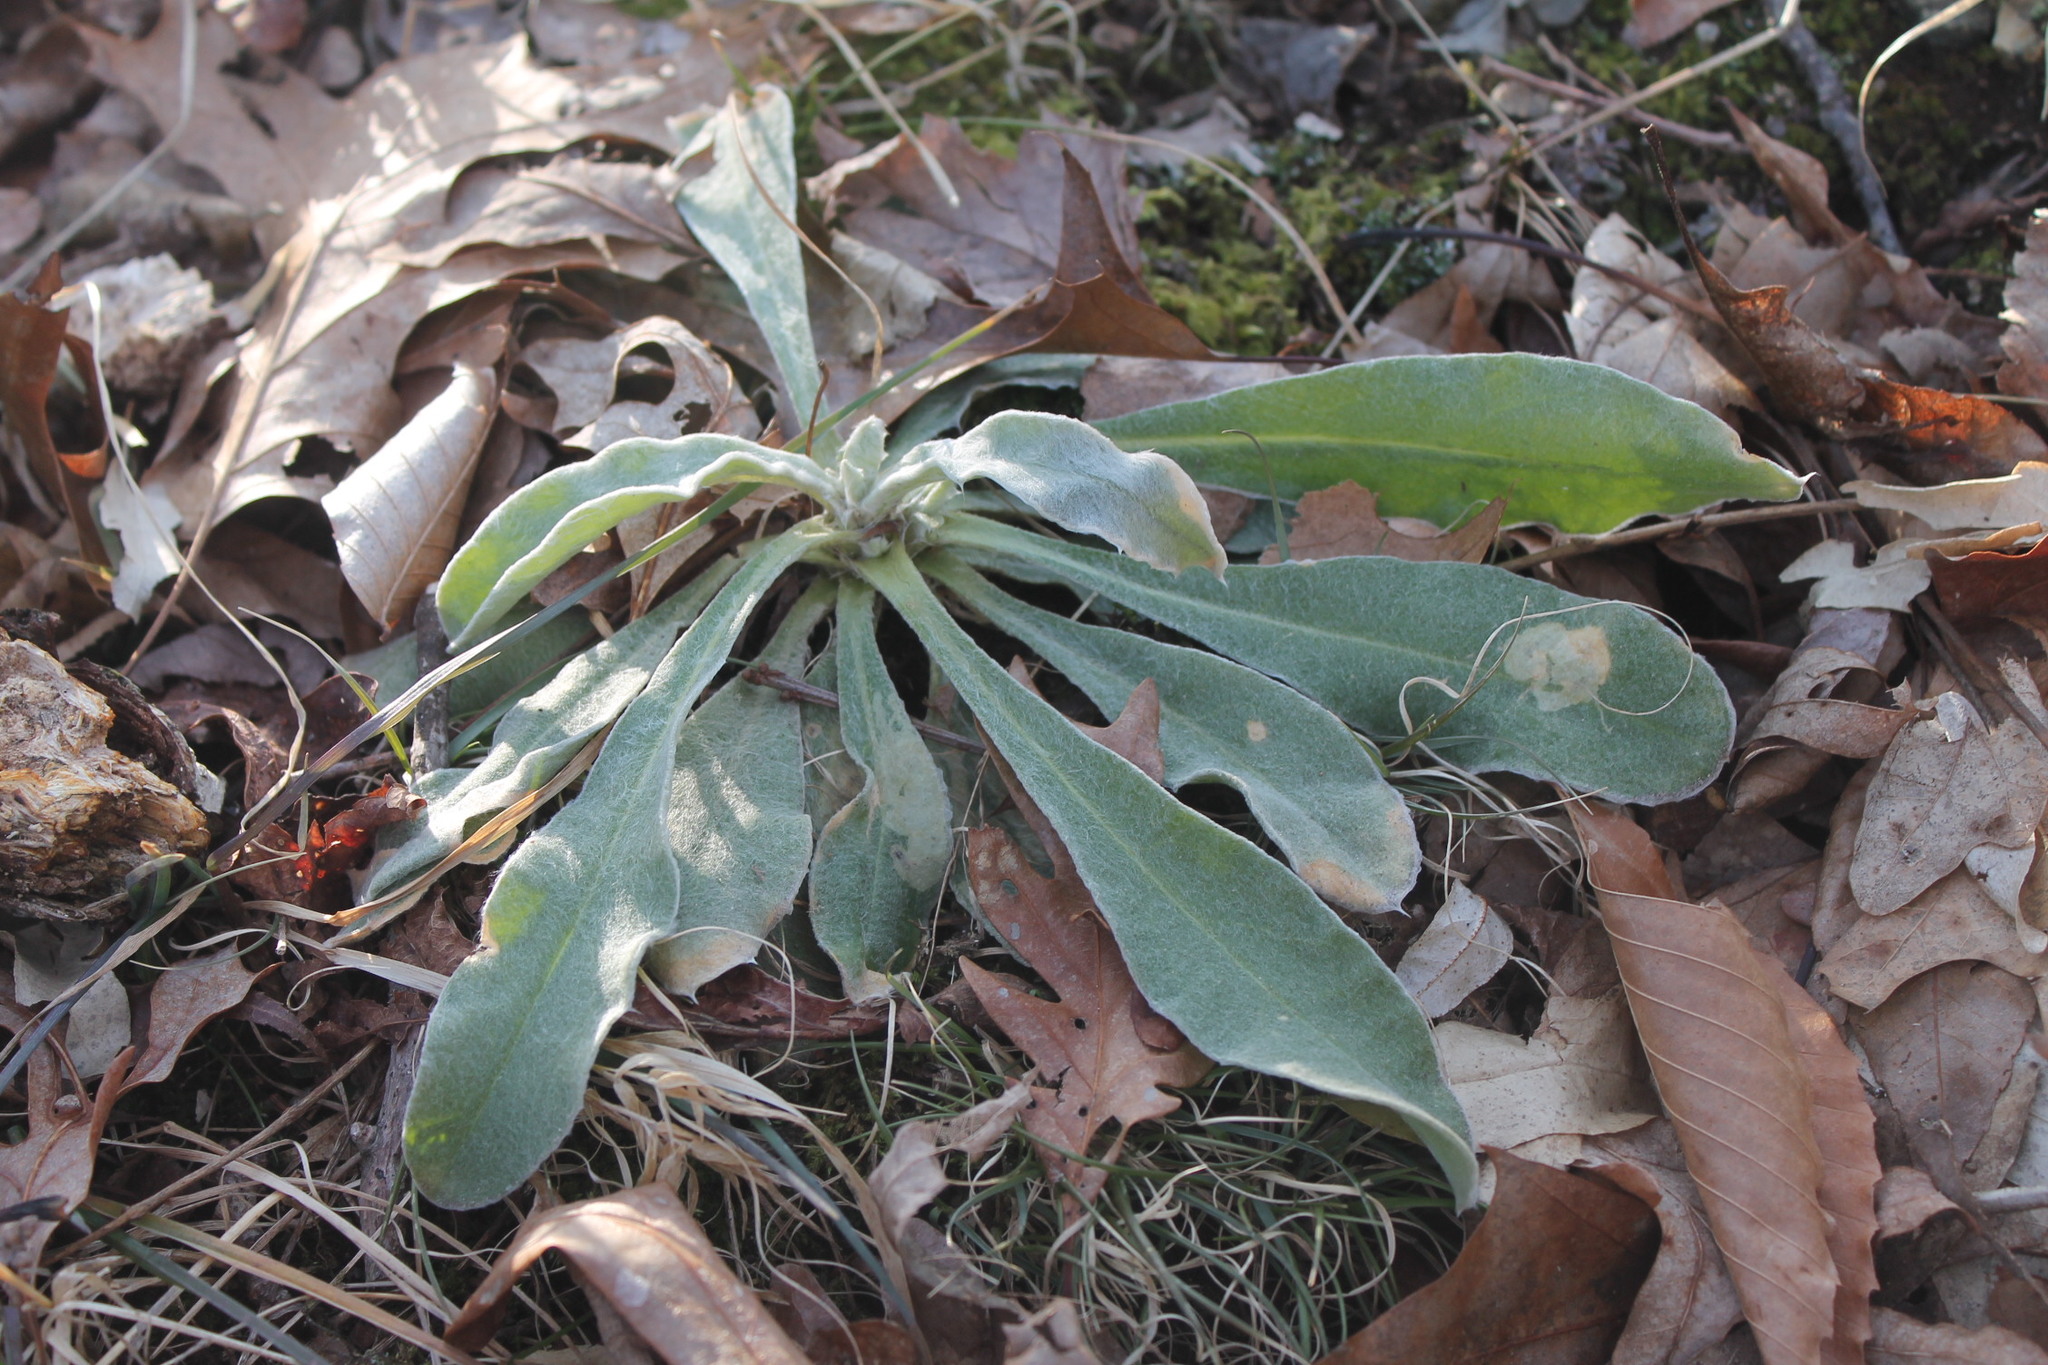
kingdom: Plantae
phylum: Tracheophyta
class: Magnoliopsida
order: Caryophyllales
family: Caryophyllaceae
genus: Silene
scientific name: Silene coronaria
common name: Rose campion
